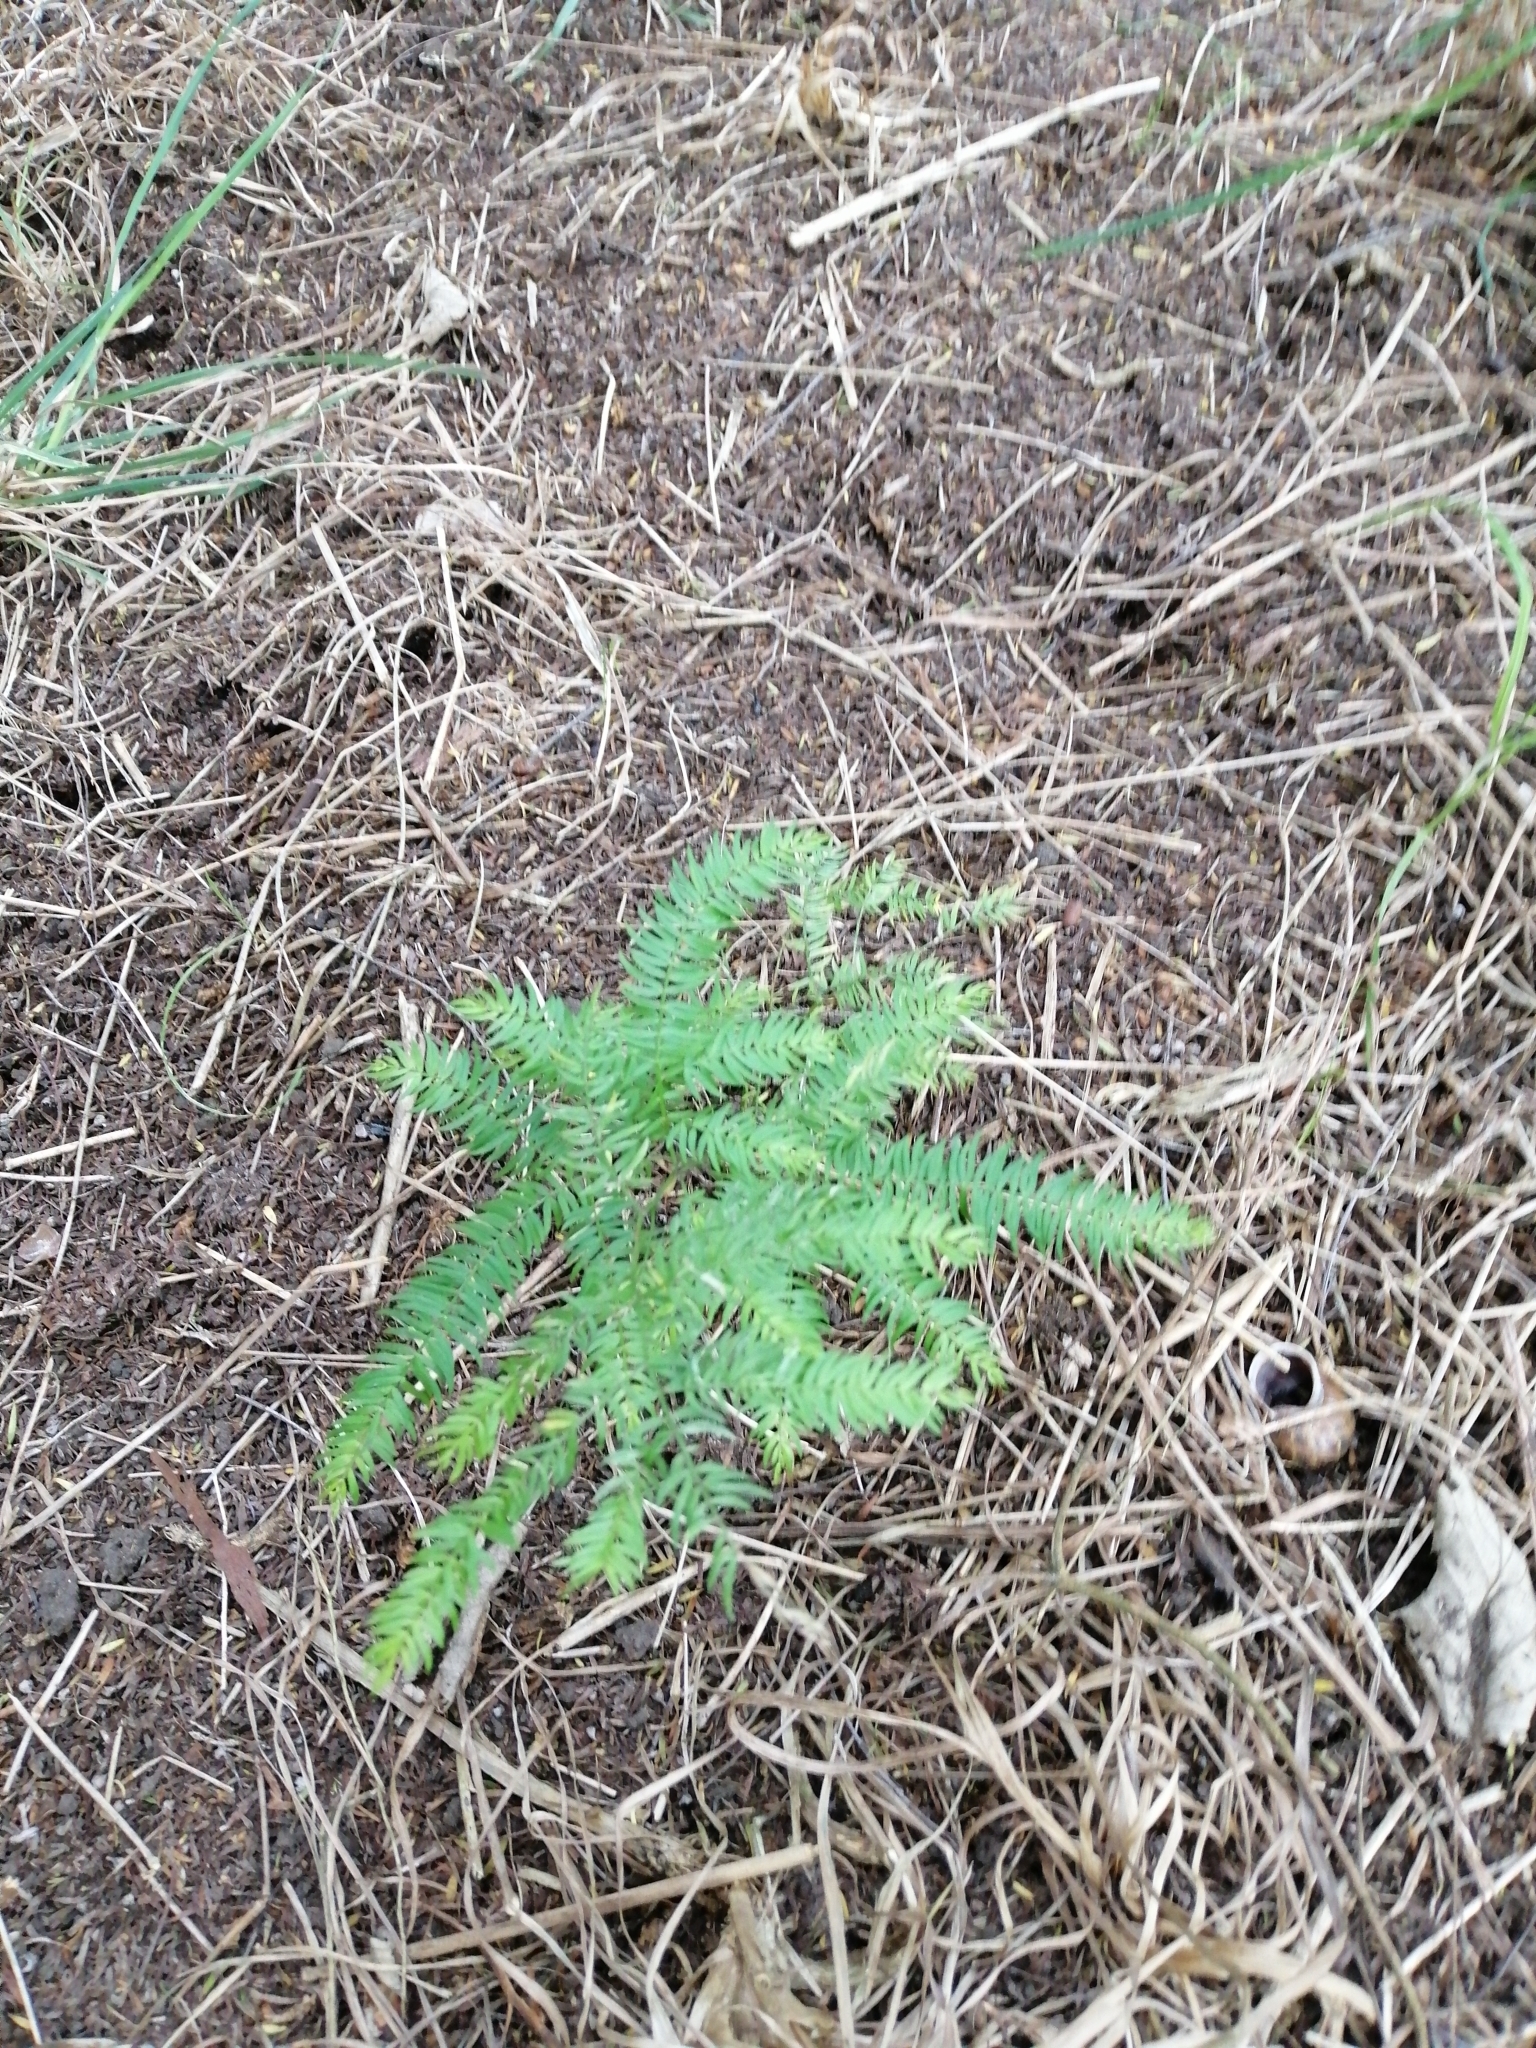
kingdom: Plantae
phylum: Tracheophyta
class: Liliopsida
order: Asparagales
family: Asparagaceae
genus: Asparagus
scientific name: Asparagus scandens
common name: Asparagus-fern
